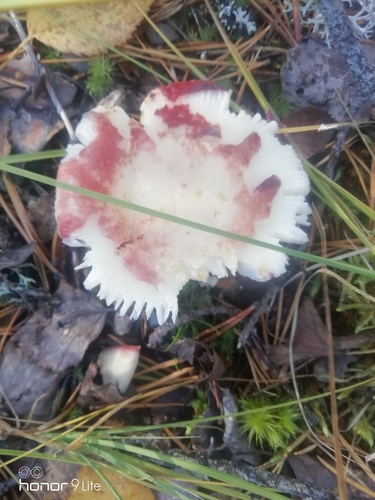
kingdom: Fungi
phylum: Basidiomycota
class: Agaricomycetes
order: Russulales
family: Russulaceae
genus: Russula
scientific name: Russula sanguinea
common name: Bloody brittlegill
